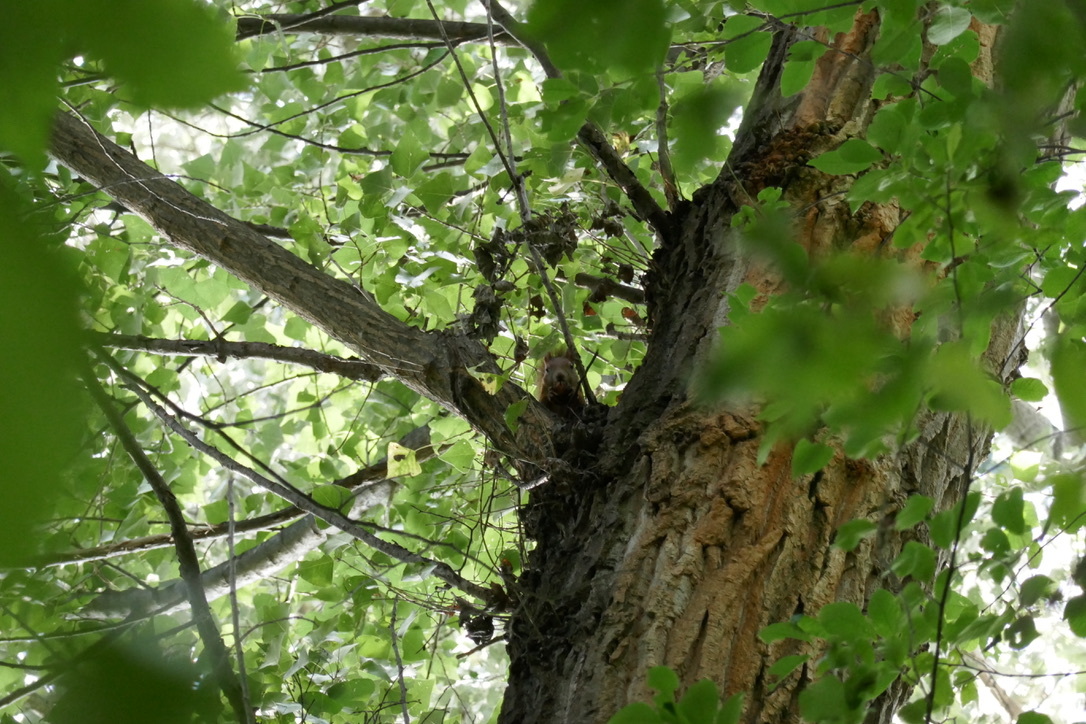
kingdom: Animalia
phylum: Chordata
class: Mammalia
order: Rodentia
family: Sciuridae
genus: Sciurus
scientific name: Sciurus vulgaris
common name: Eurasian red squirrel
